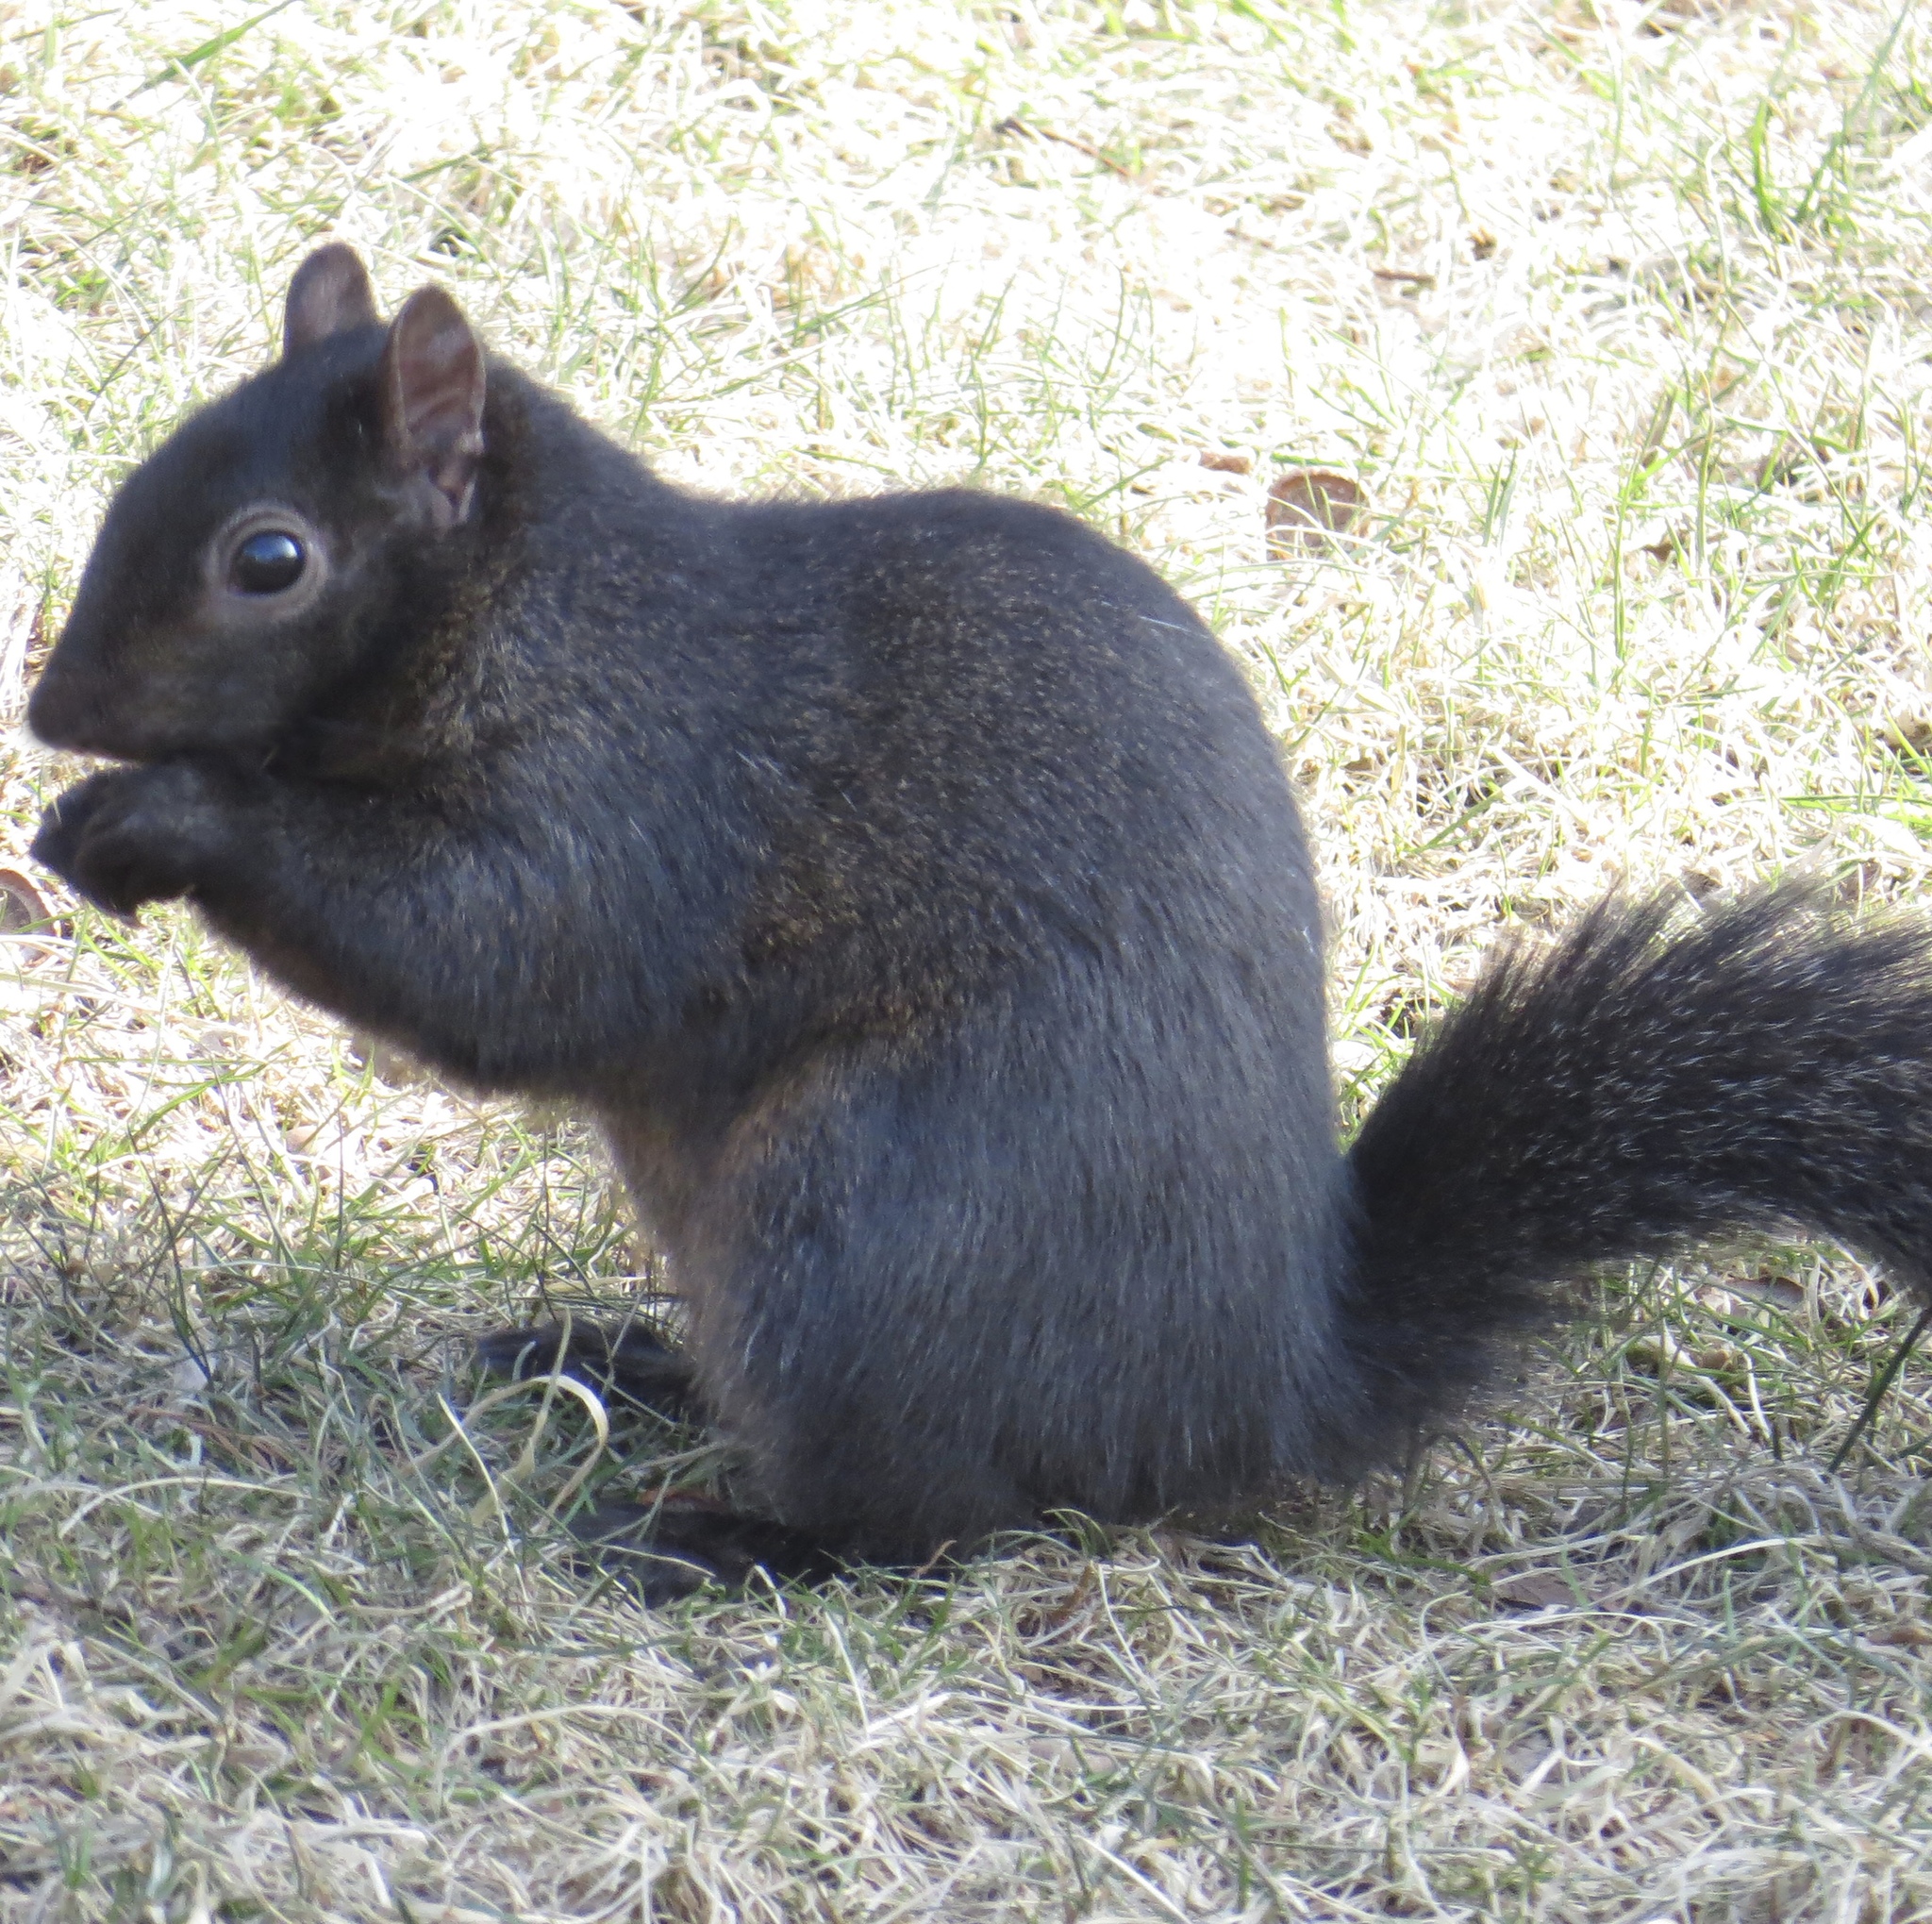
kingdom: Animalia
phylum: Chordata
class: Mammalia
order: Rodentia
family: Sciuridae
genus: Sciurus
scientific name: Sciurus carolinensis
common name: Eastern gray squirrel
